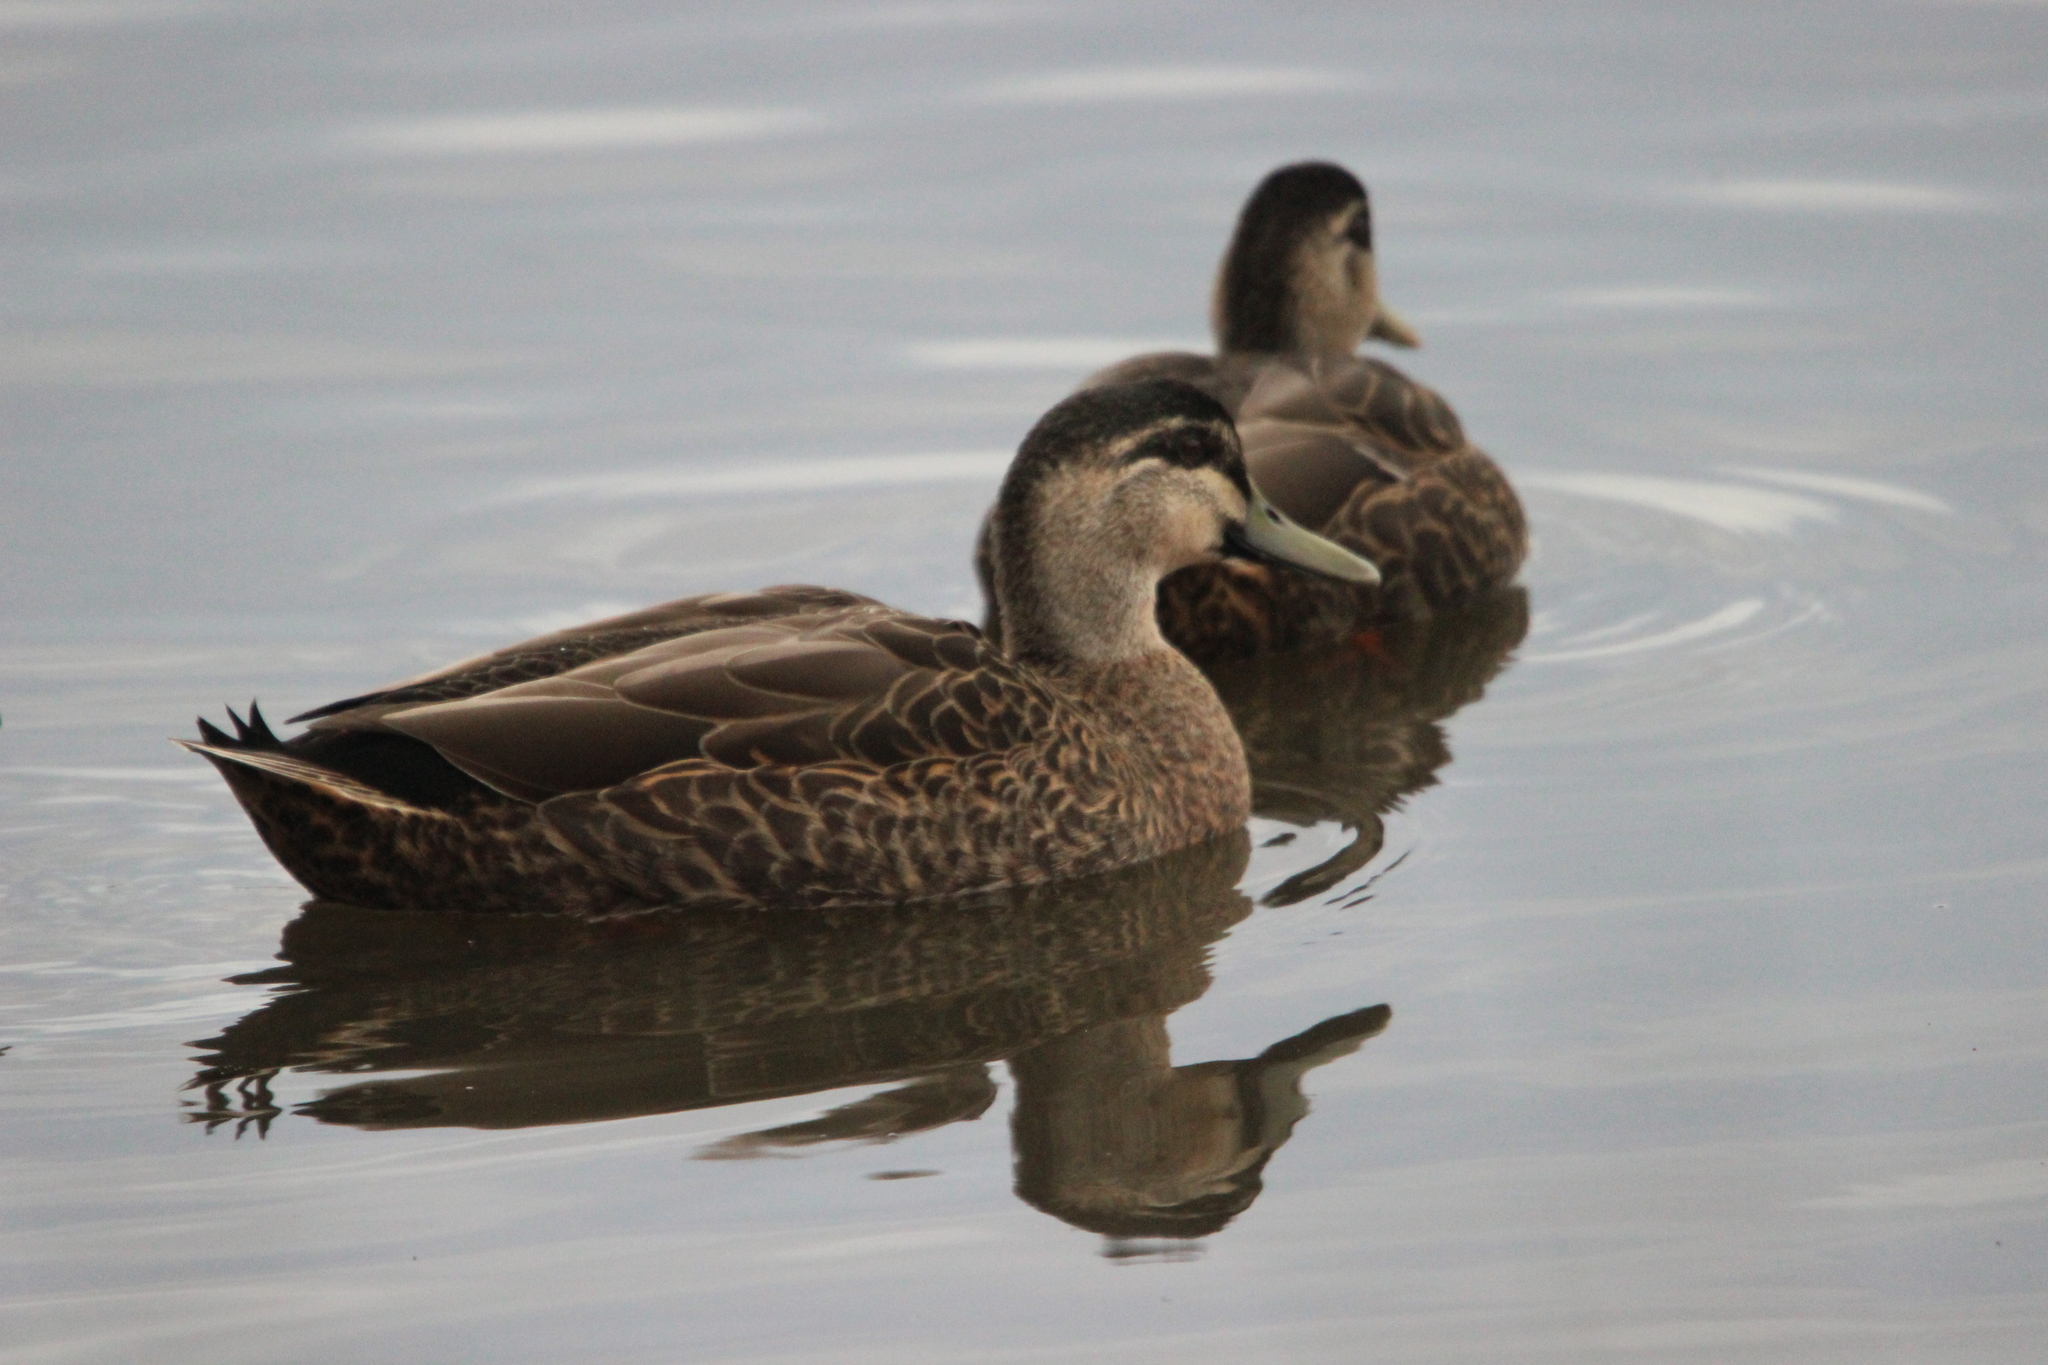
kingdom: Animalia
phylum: Chordata
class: Aves
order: Anseriformes
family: Anatidae
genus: Anas
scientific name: Anas
